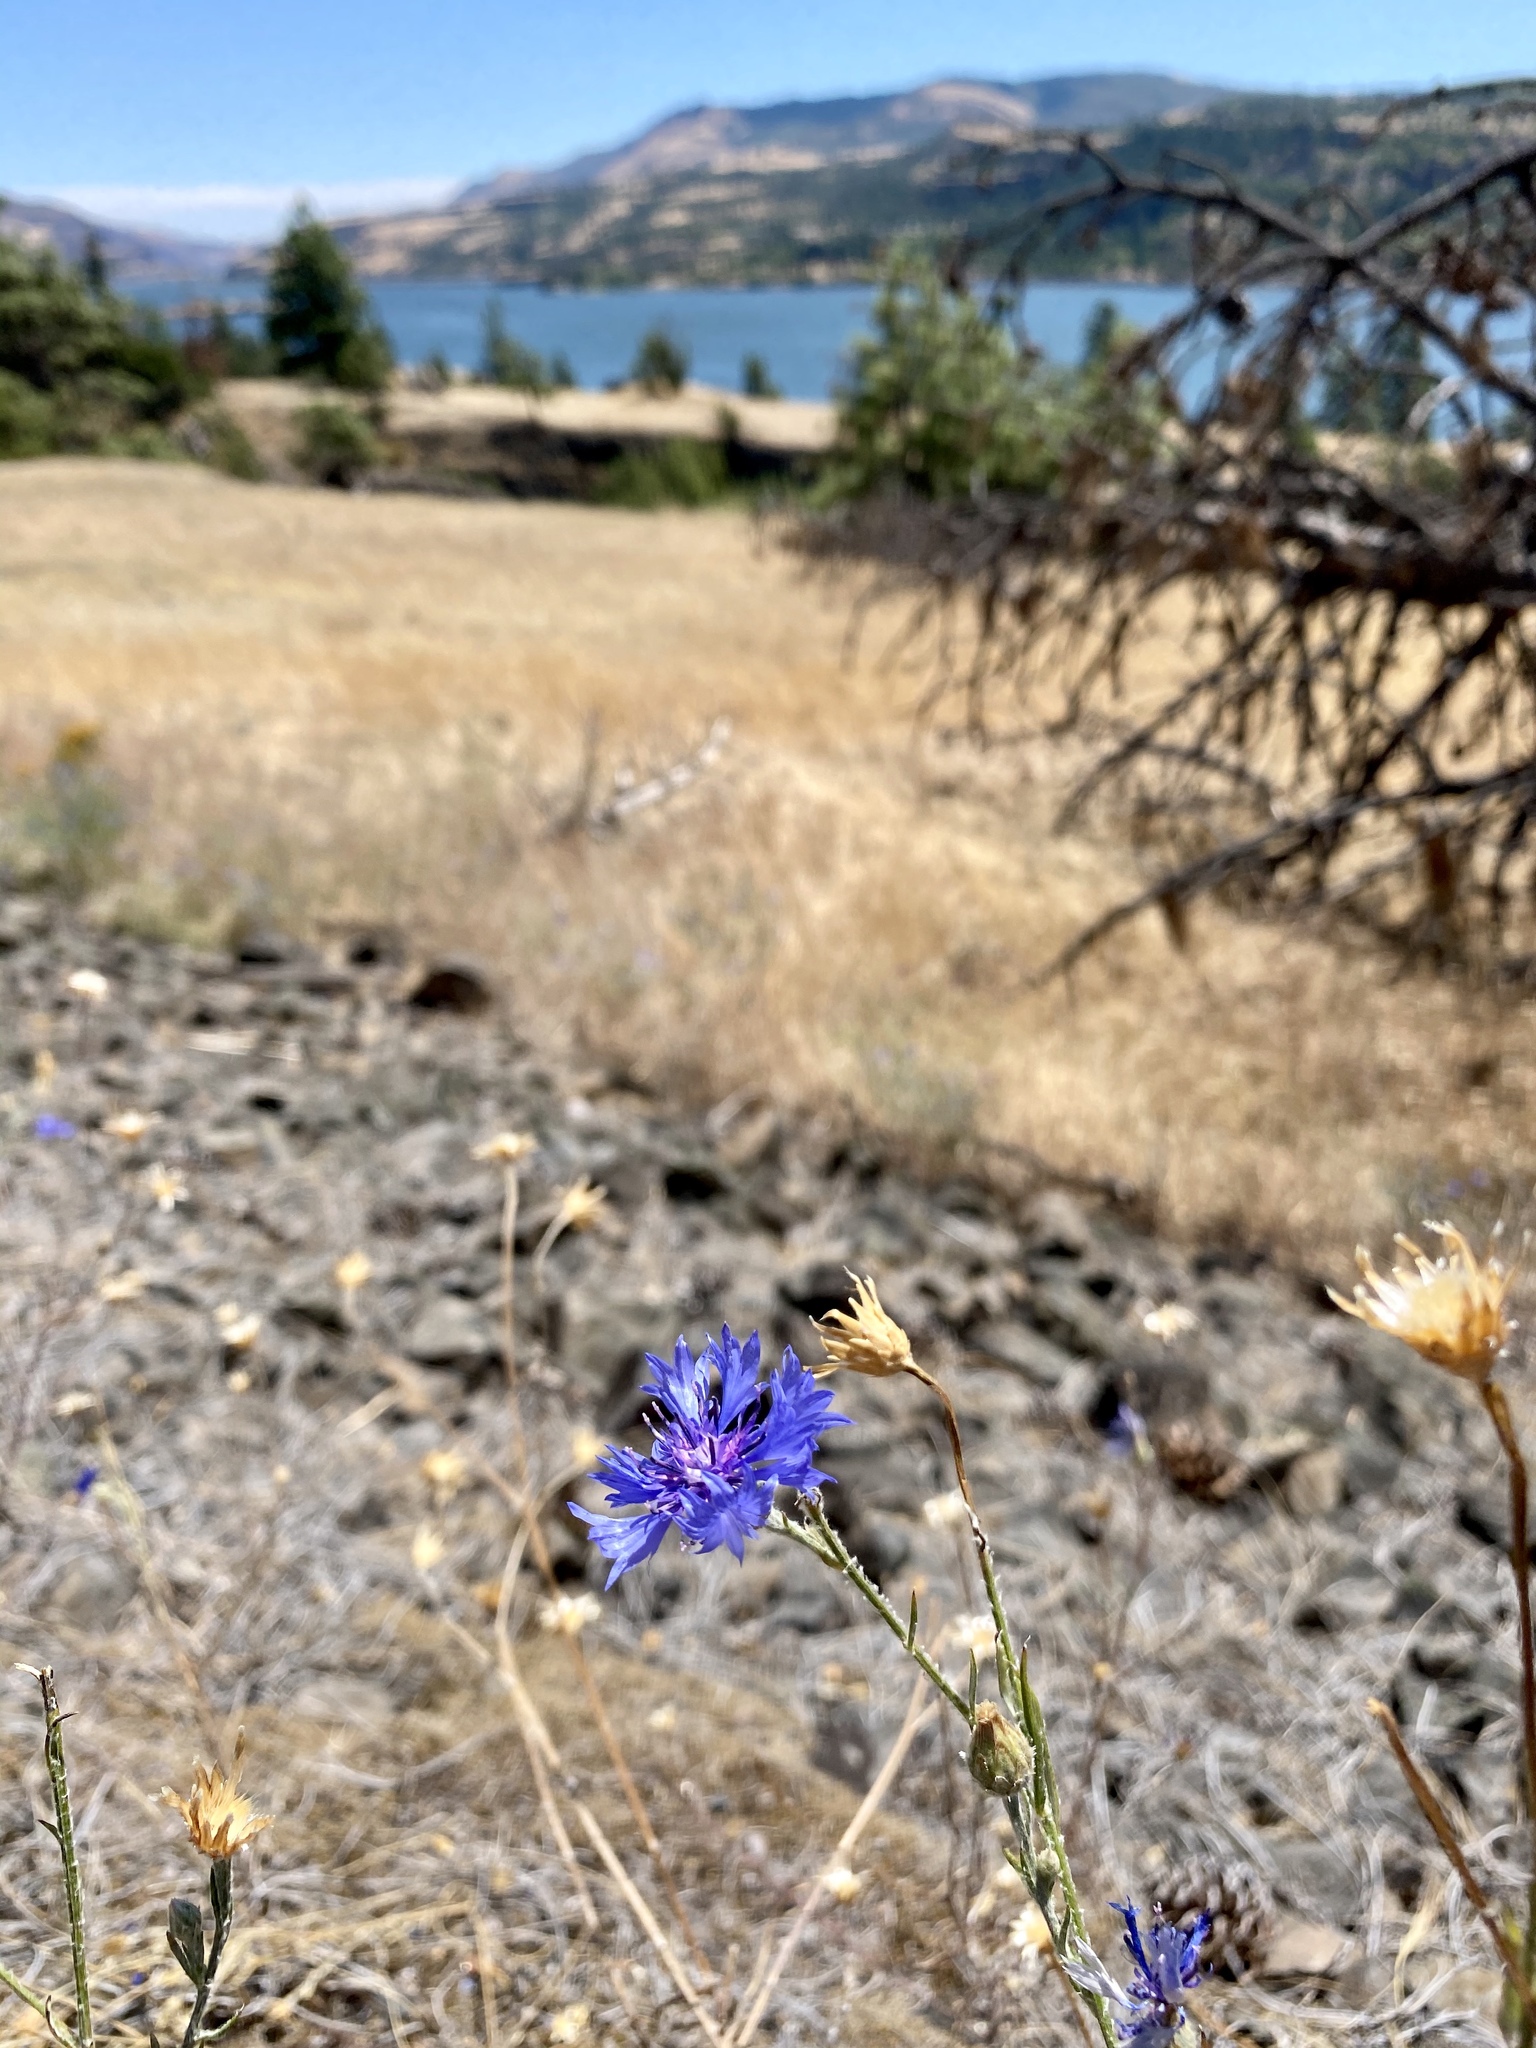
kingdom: Plantae
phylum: Tracheophyta
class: Magnoliopsida
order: Asterales
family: Asteraceae
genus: Centaurea
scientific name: Centaurea cyanus
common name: Cornflower
